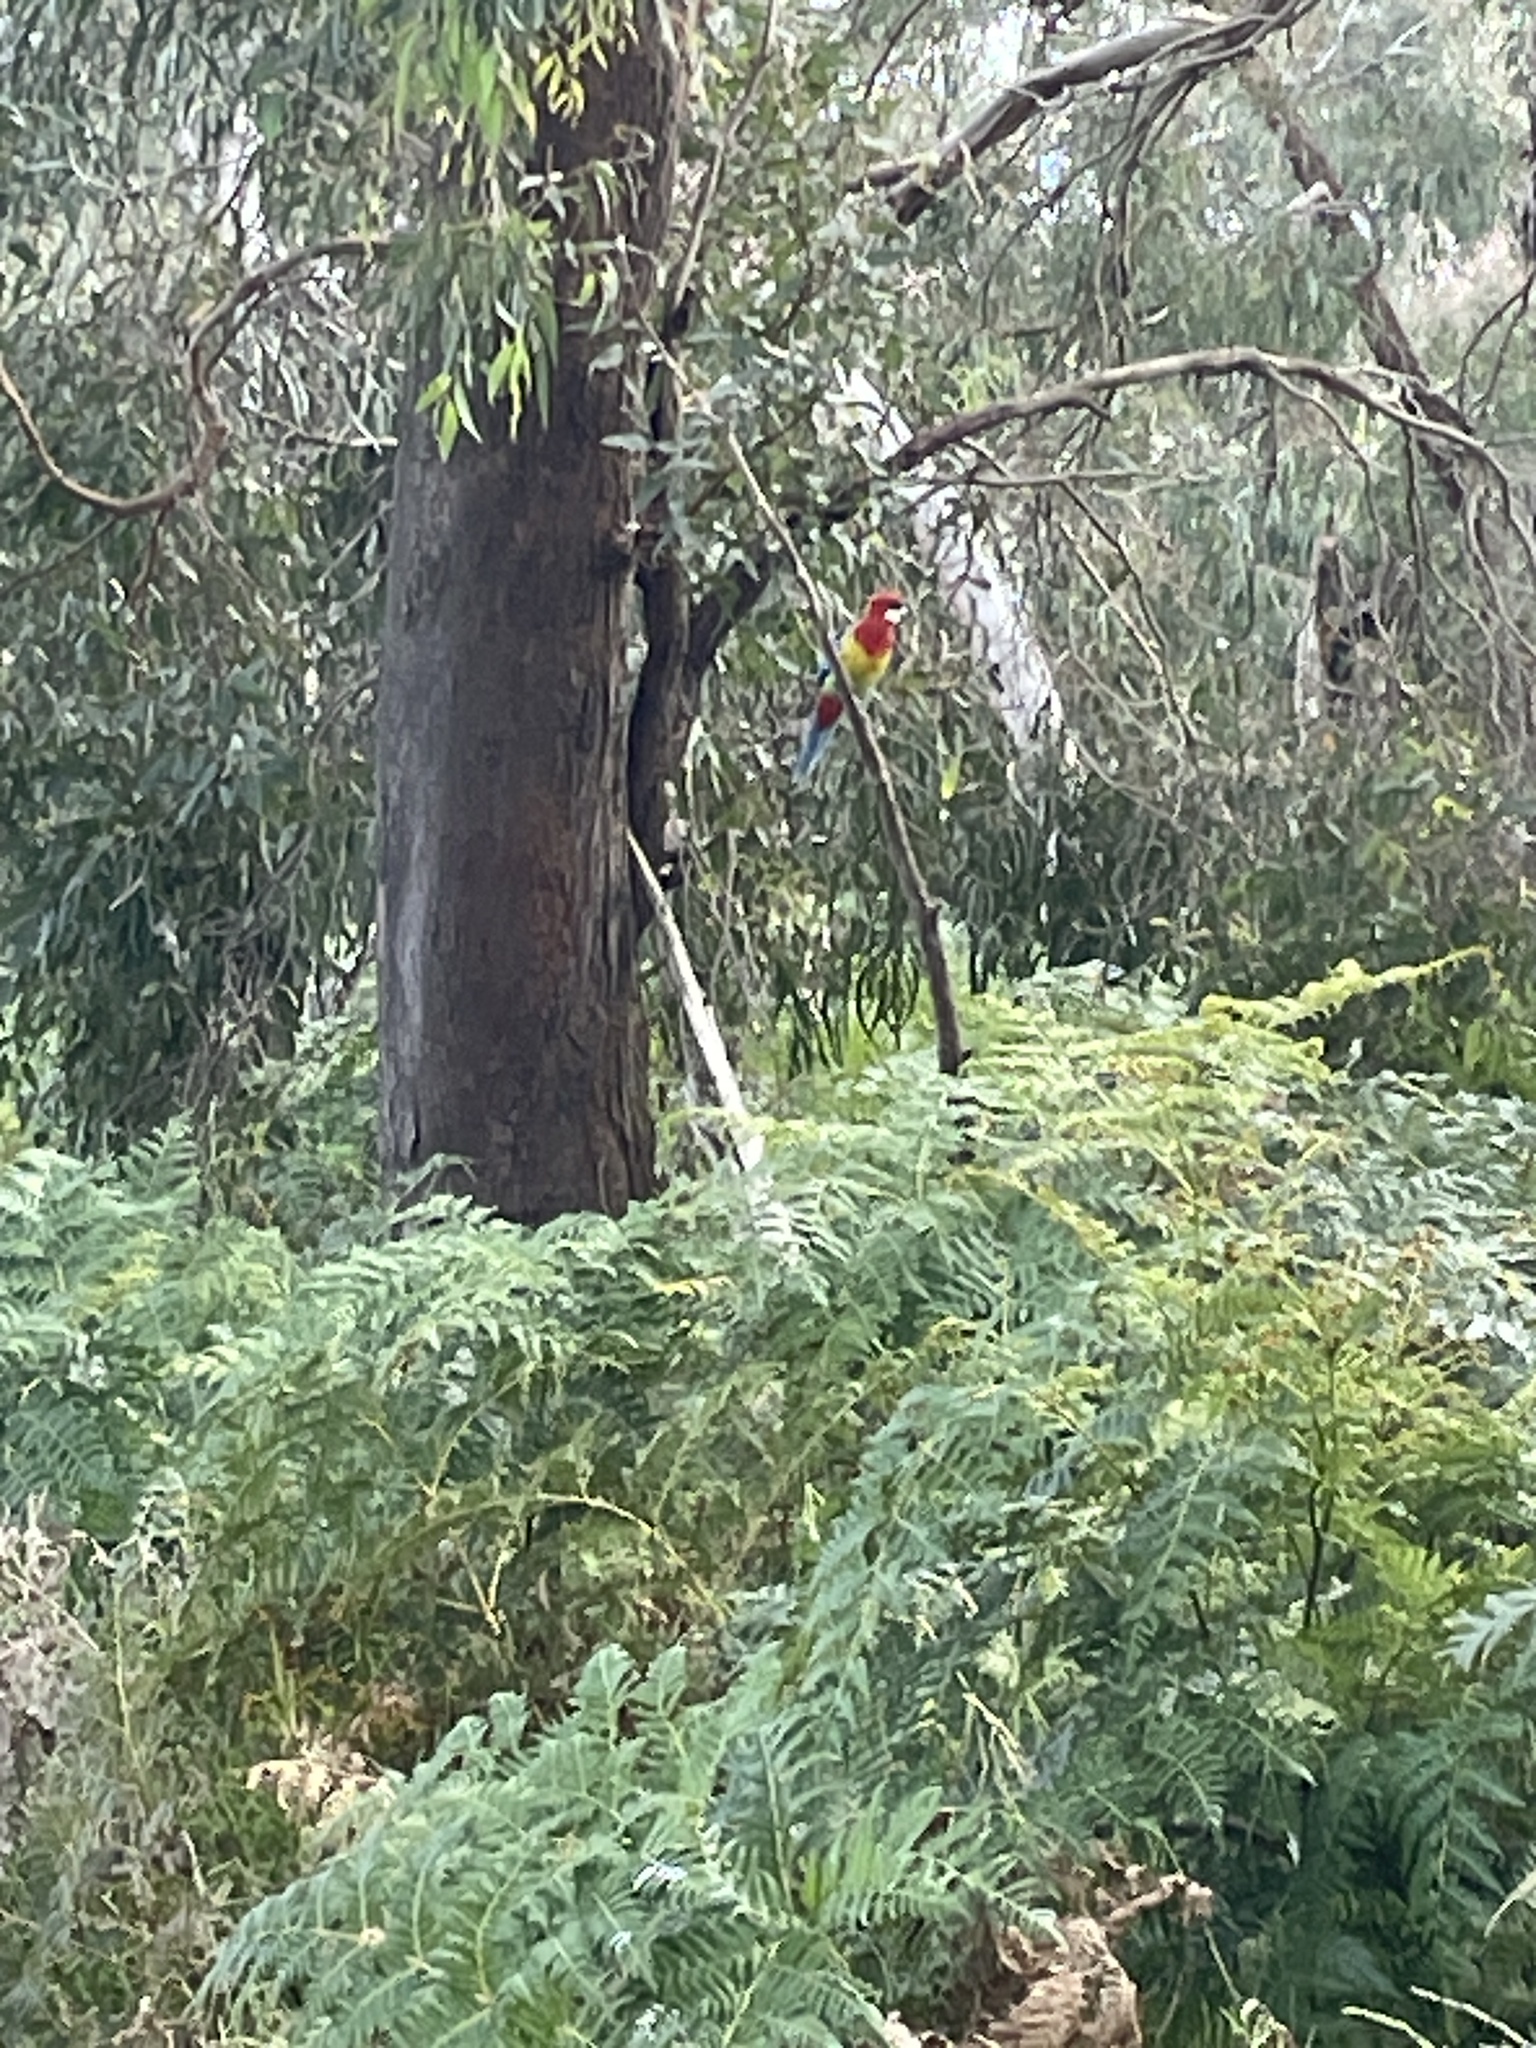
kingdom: Animalia
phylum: Chordata
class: Aves
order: Psittaciformes
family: Psittacidae
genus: Platycercus
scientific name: Platycercus eximius
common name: Eastern rosella
